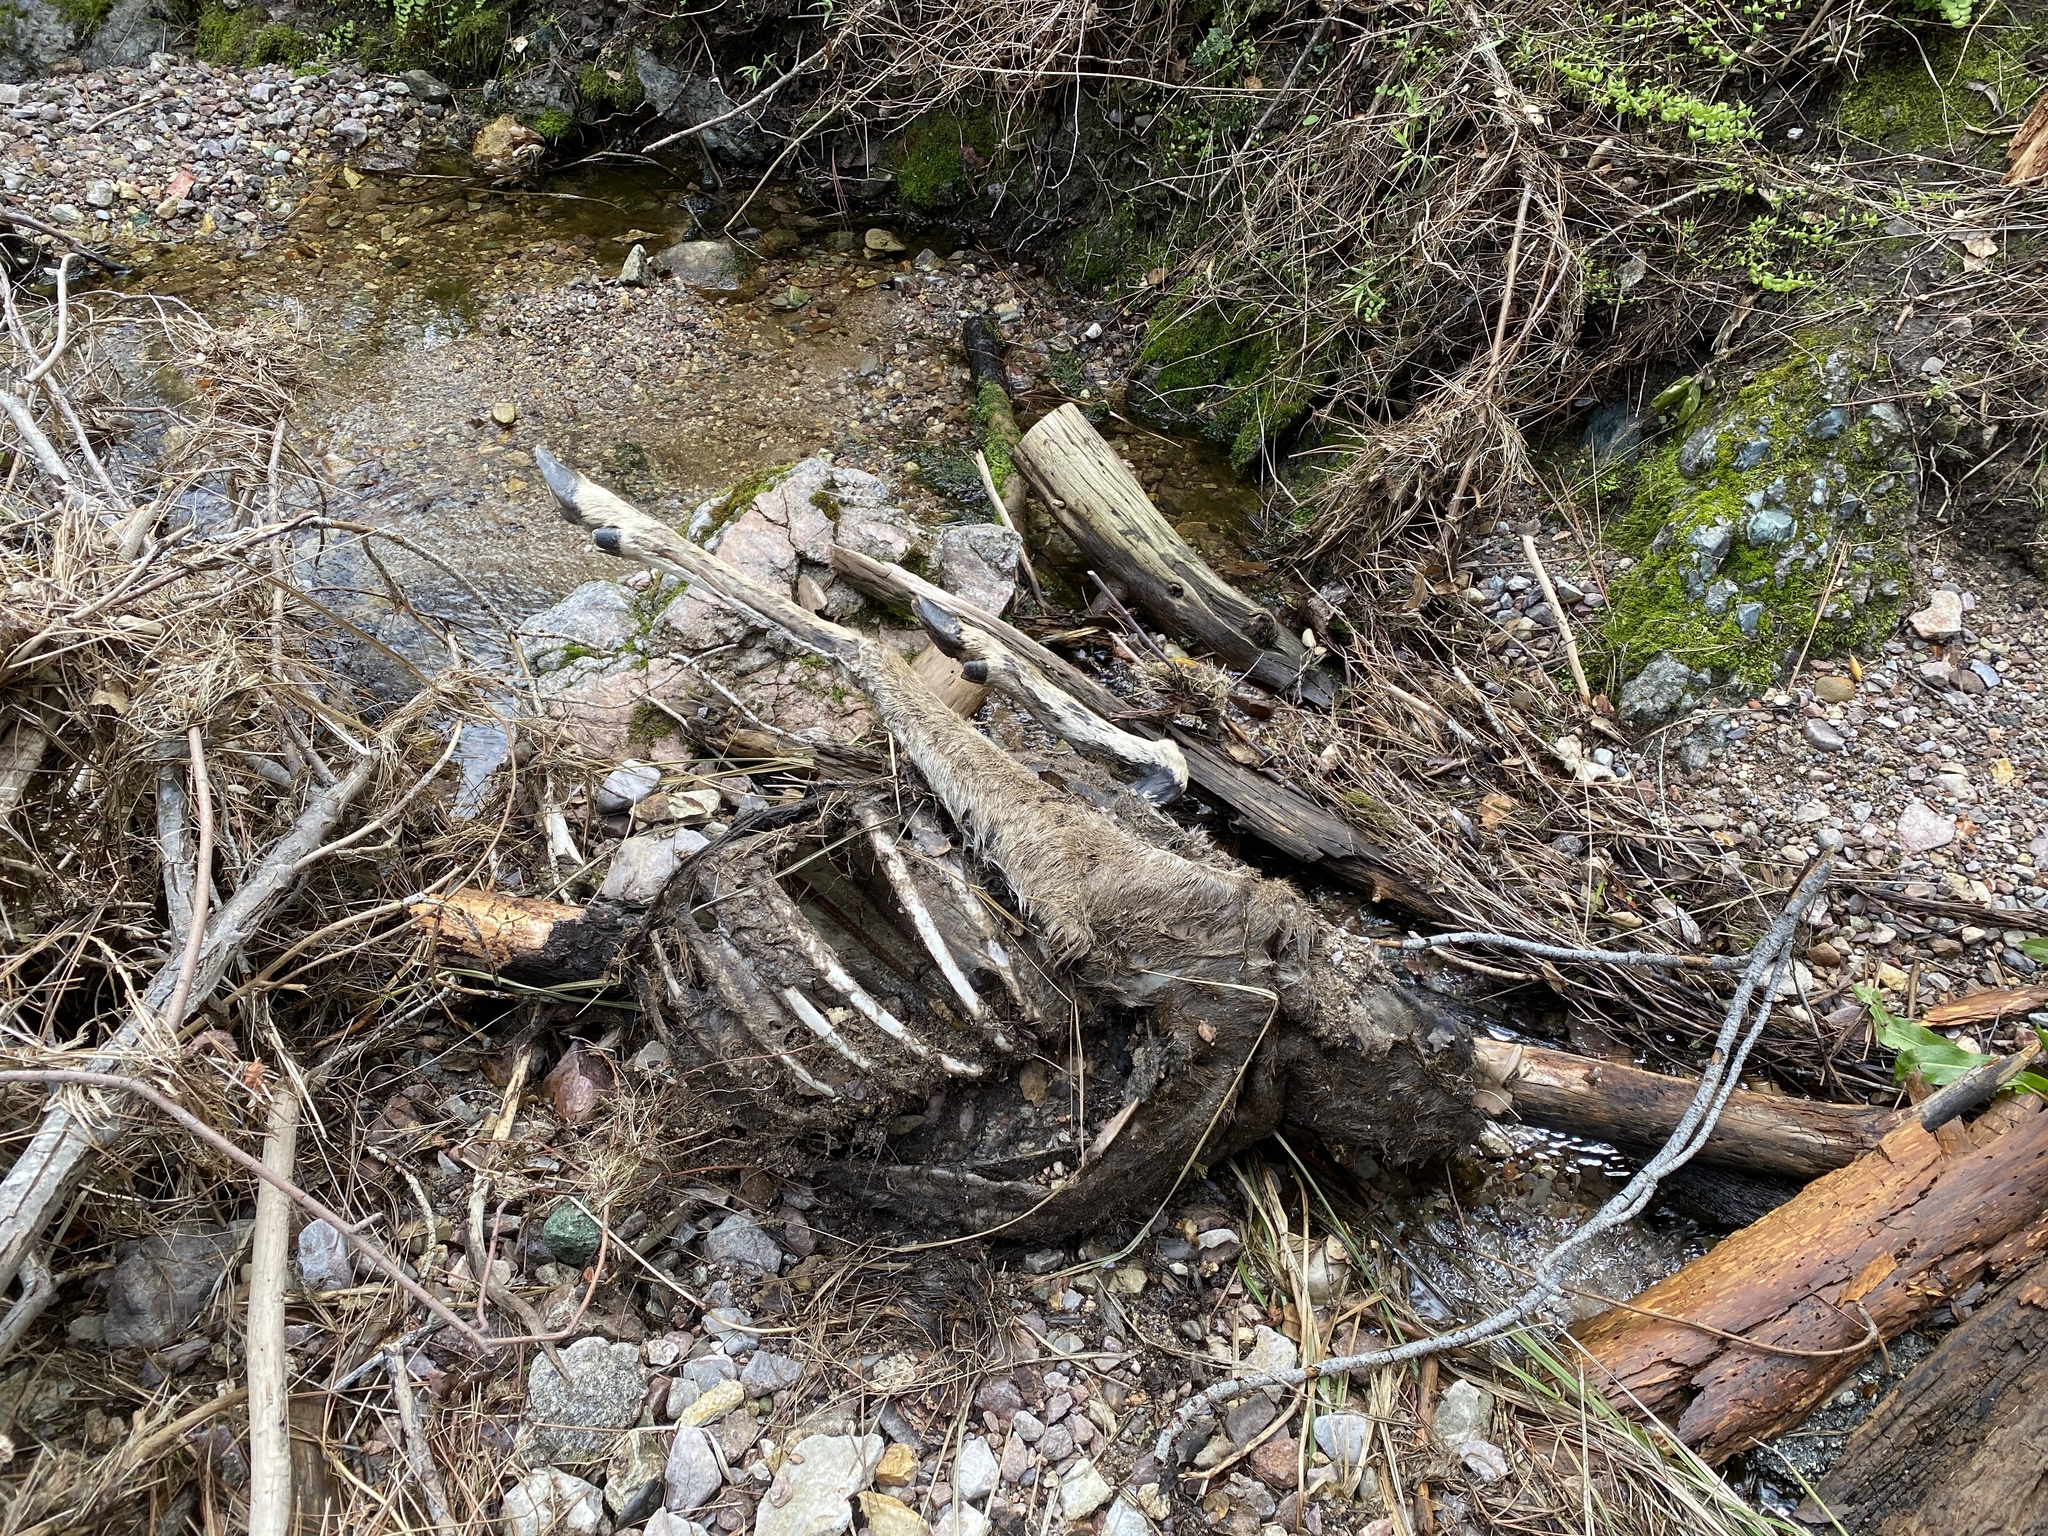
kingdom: Animalia
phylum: Chordata
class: Mammalia
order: Artiodactyla
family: Cervidae
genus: Odocoileus
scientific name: Odocoileus hemionus
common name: Mule deer
